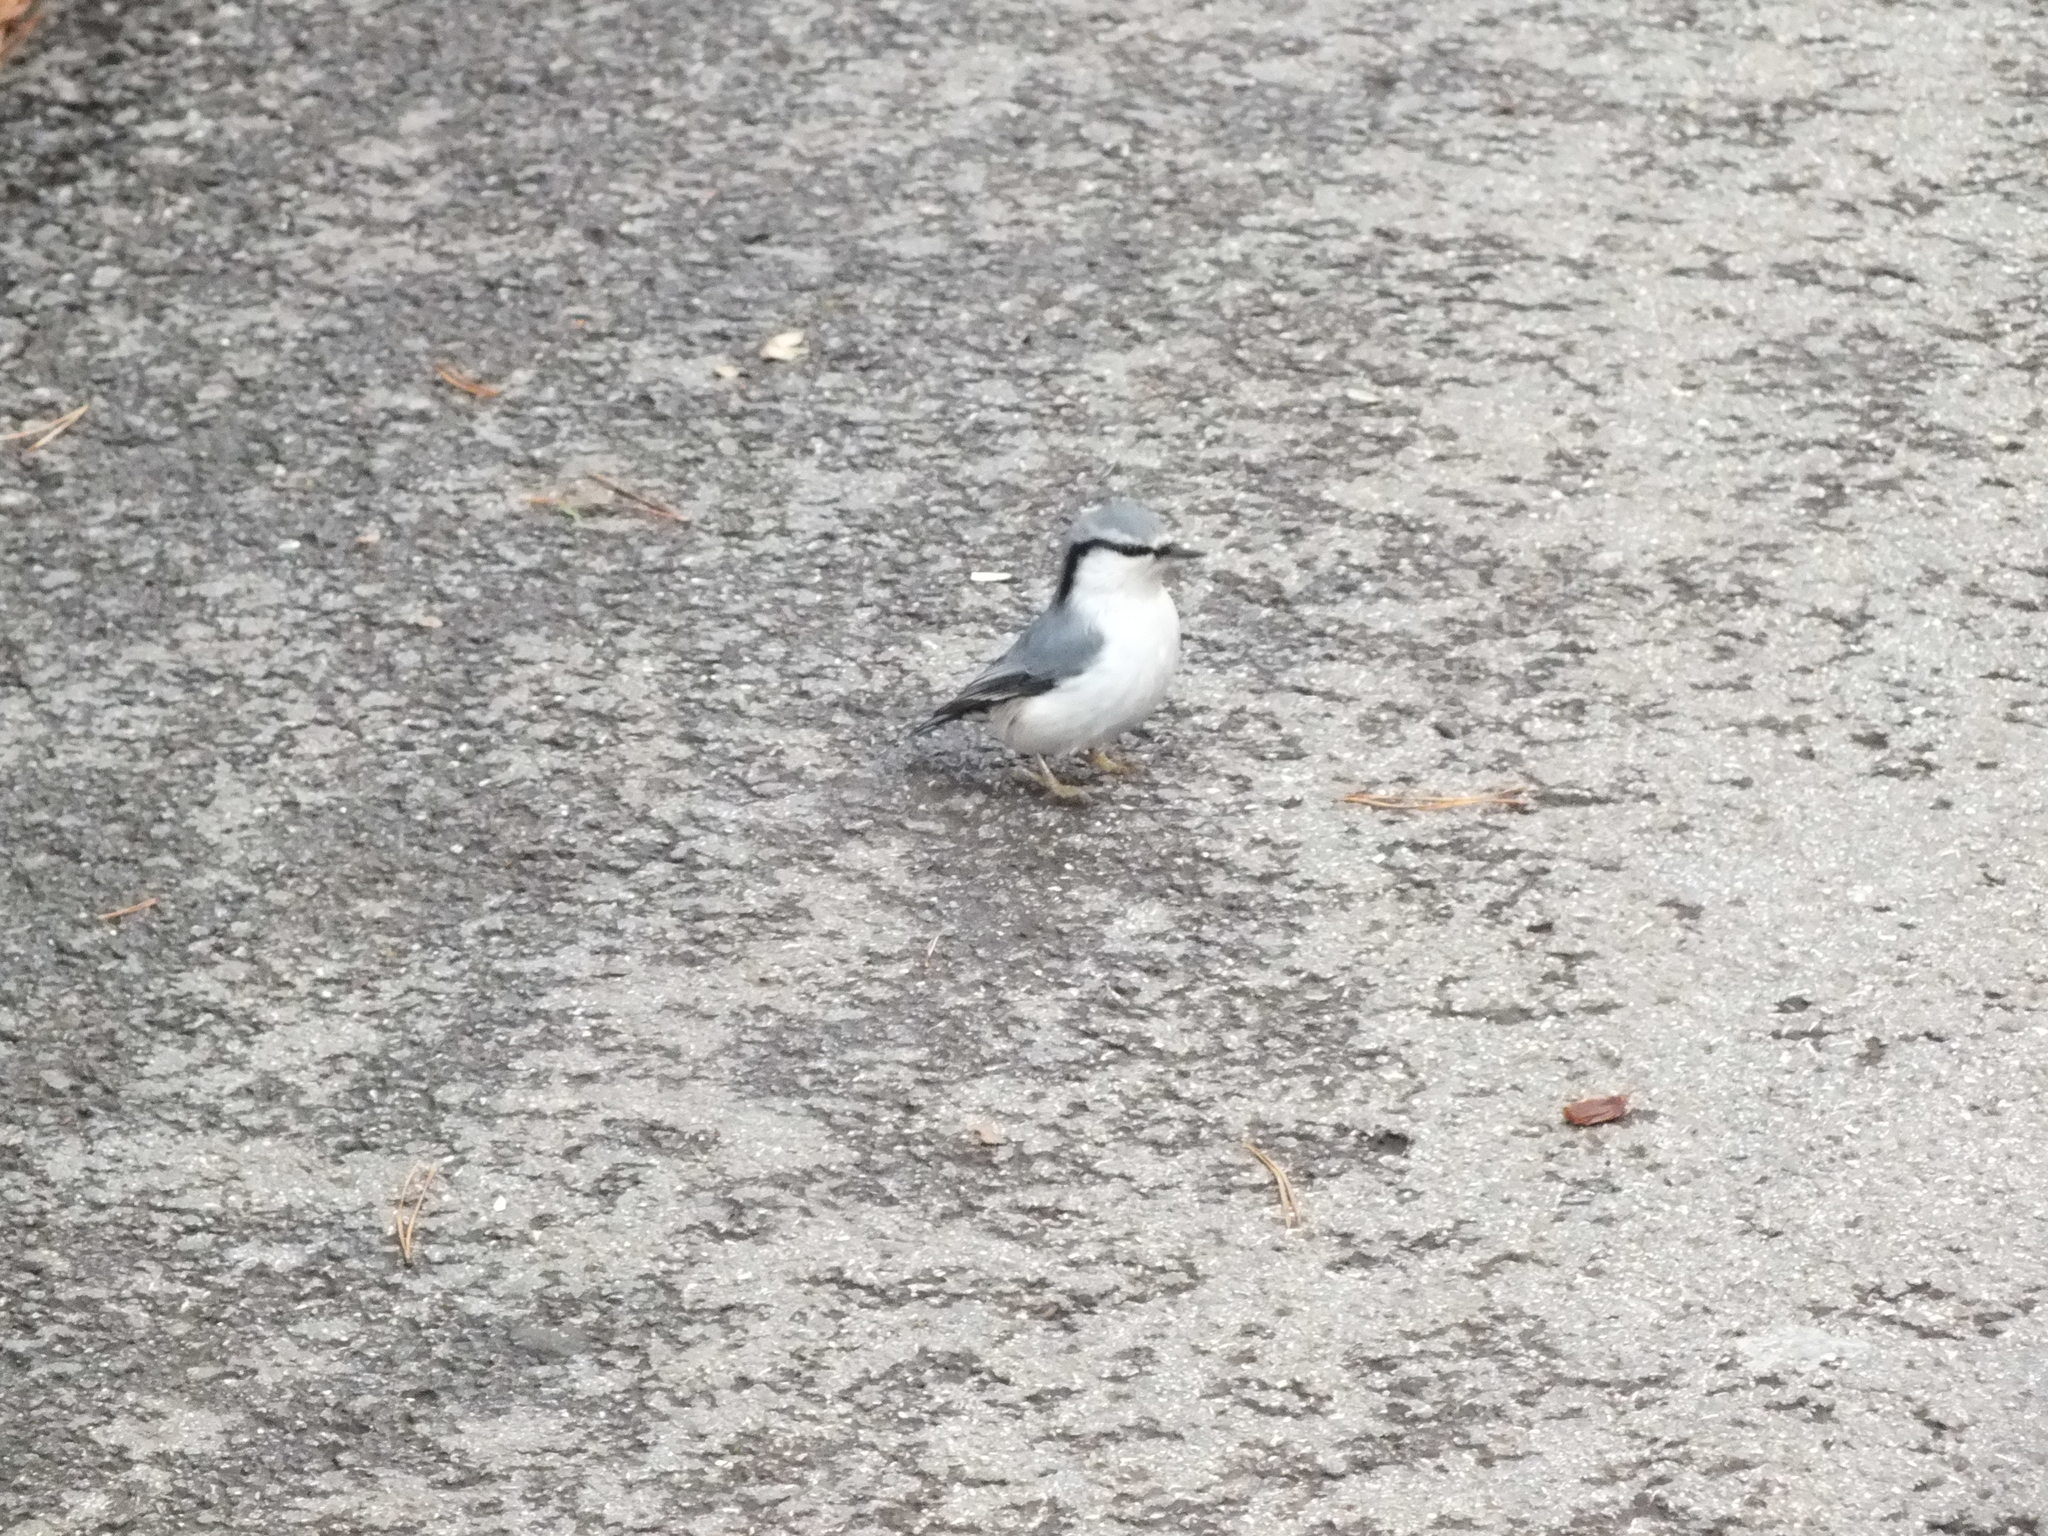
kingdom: Animalia
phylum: Chordata
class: Aves
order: Passeriformes
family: Sittidae
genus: Sitta
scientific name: Sitta europaea
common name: Eurasian nuthatch
